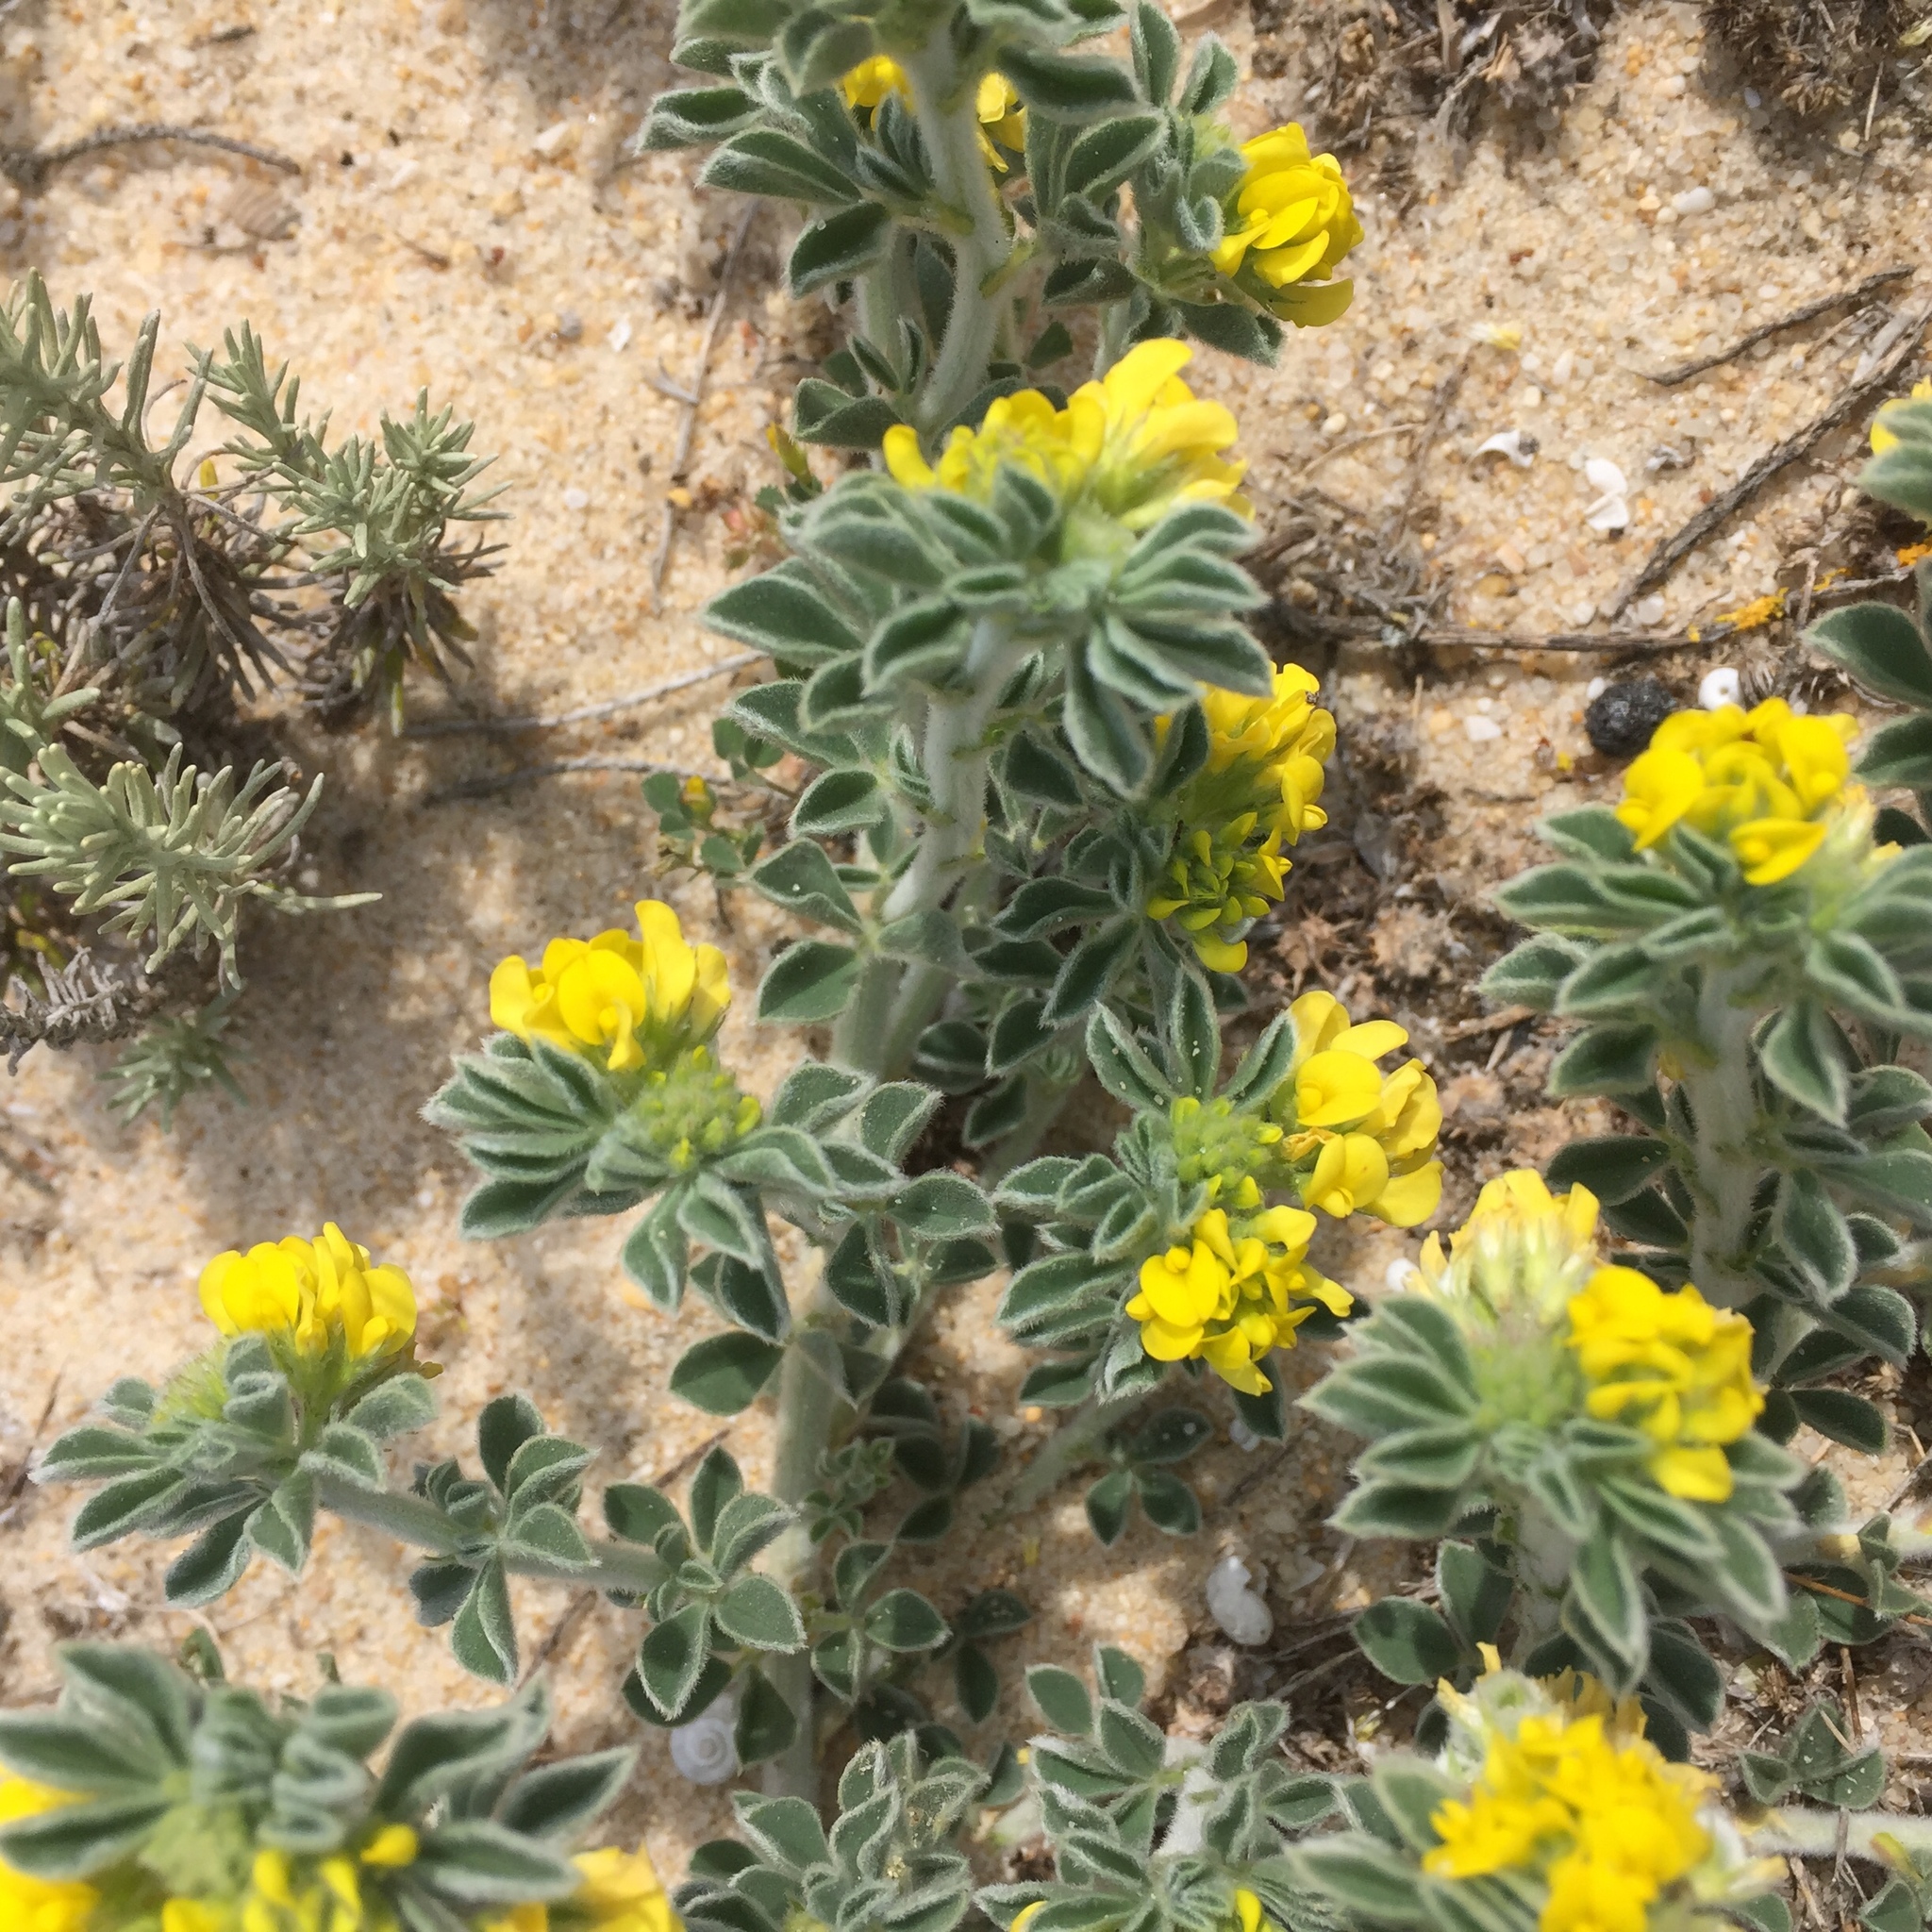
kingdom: Plantae
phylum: Tracheophyta
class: Magnoliopsida
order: Fabales
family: Fabaceae
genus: Medicago
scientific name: Medicago marina
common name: Sea medick
